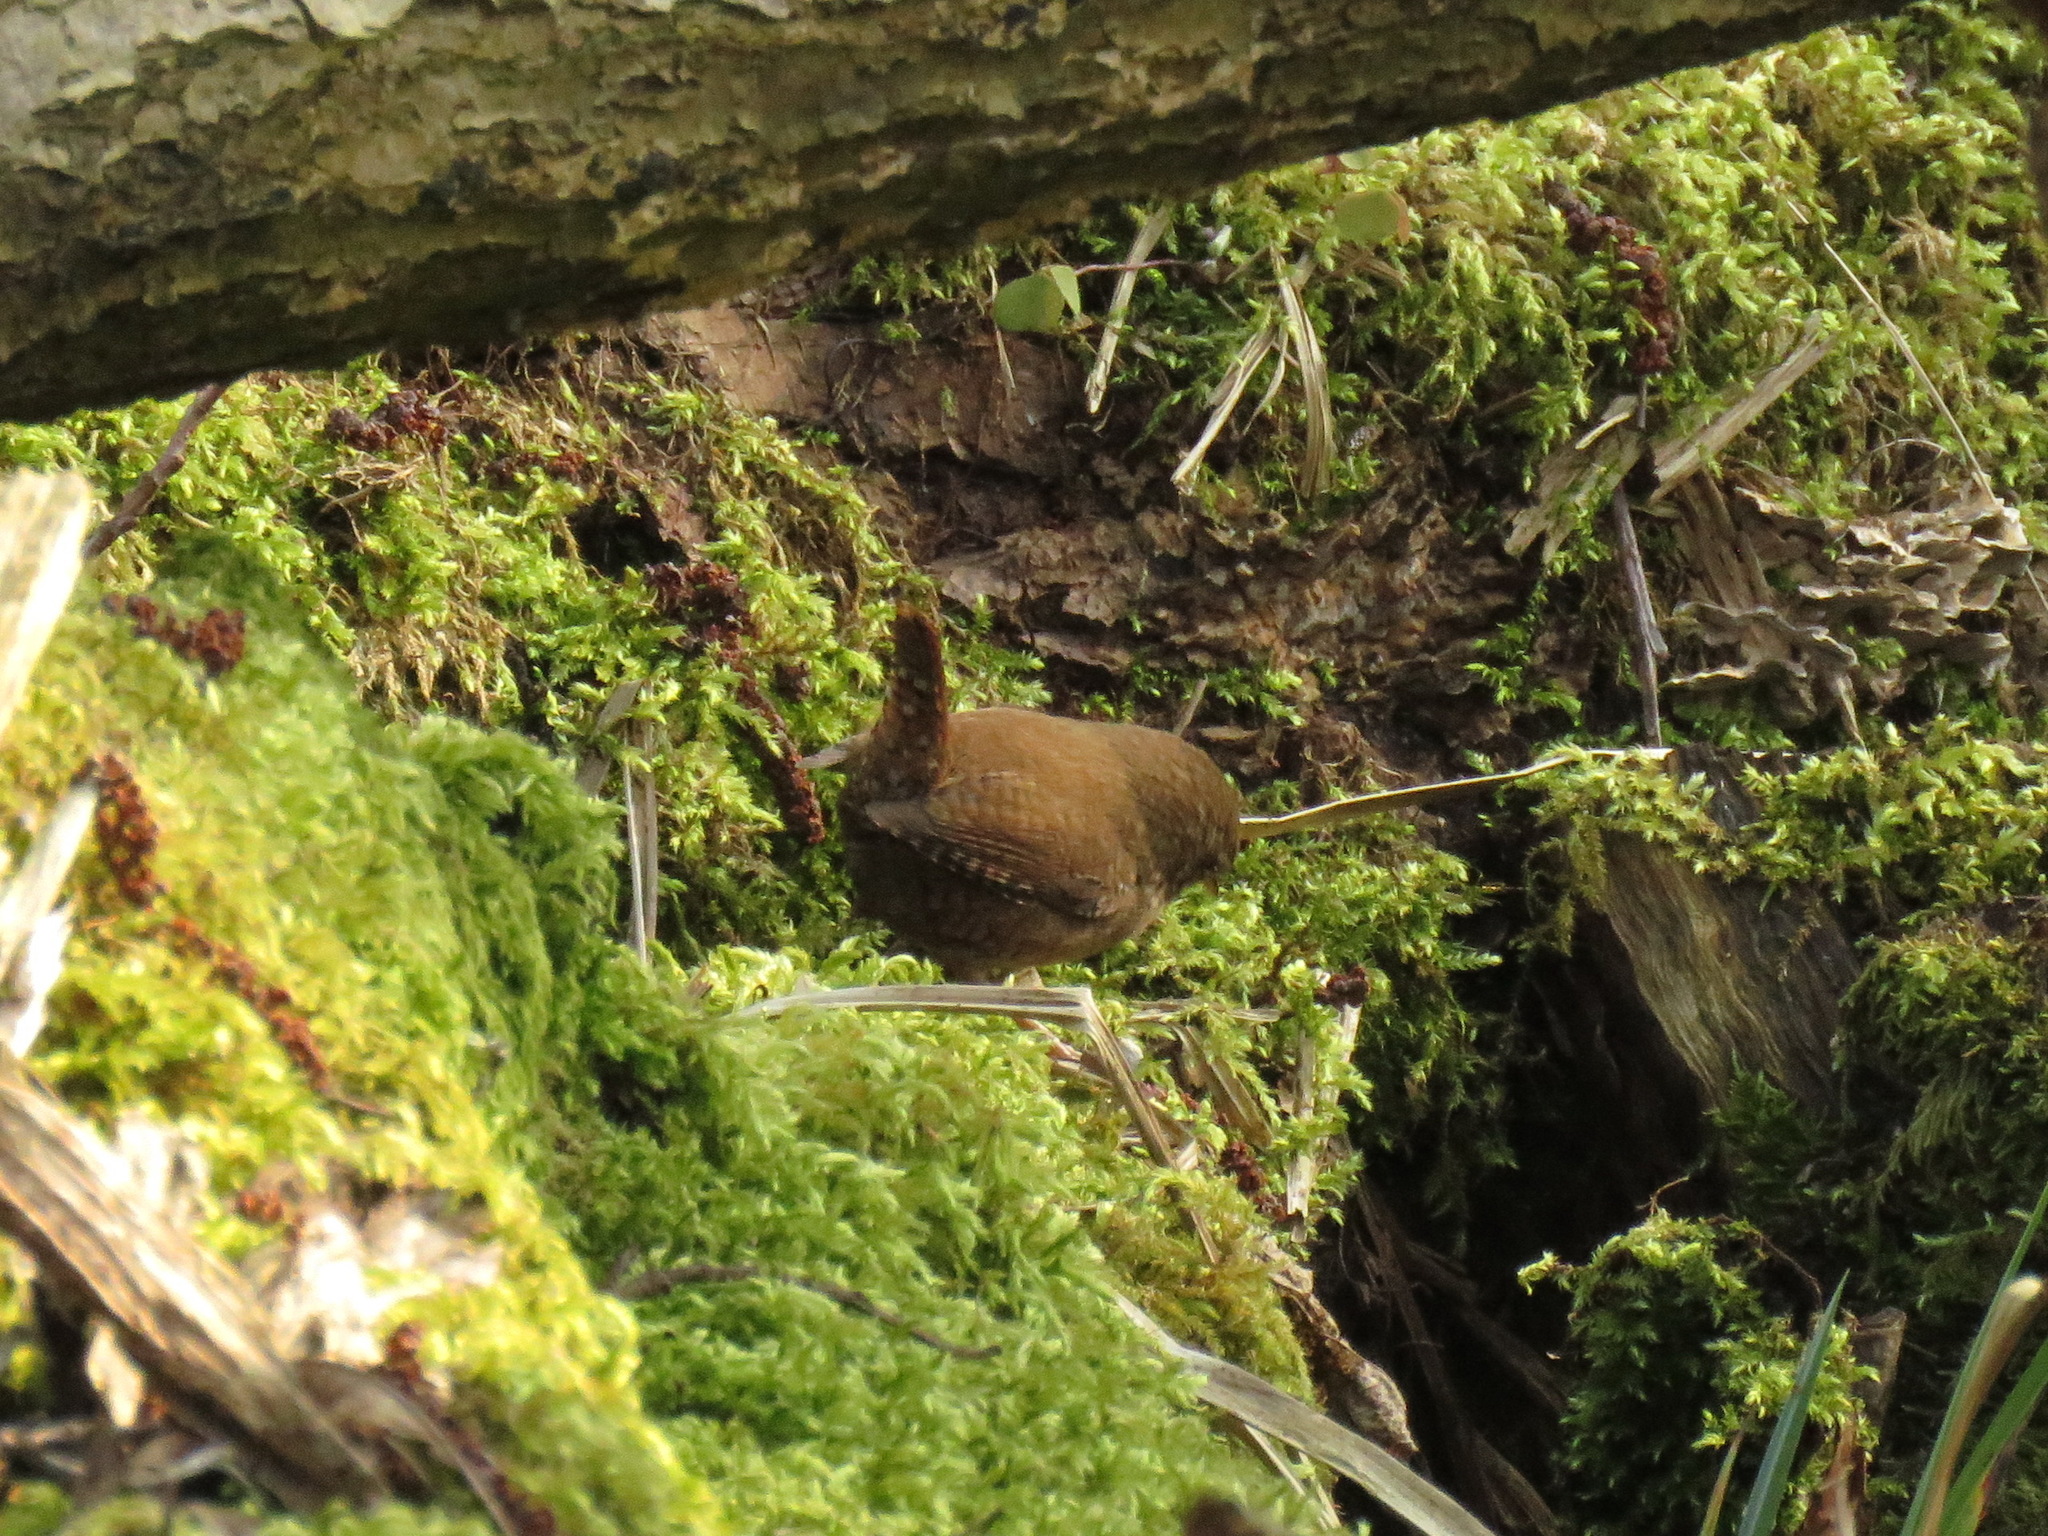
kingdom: Animalia
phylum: Chordata
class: Aves
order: Passeriformes
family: Troglodytidae
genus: Troglodytes
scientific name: Troglodytes troglodytes
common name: Eurasian wren
